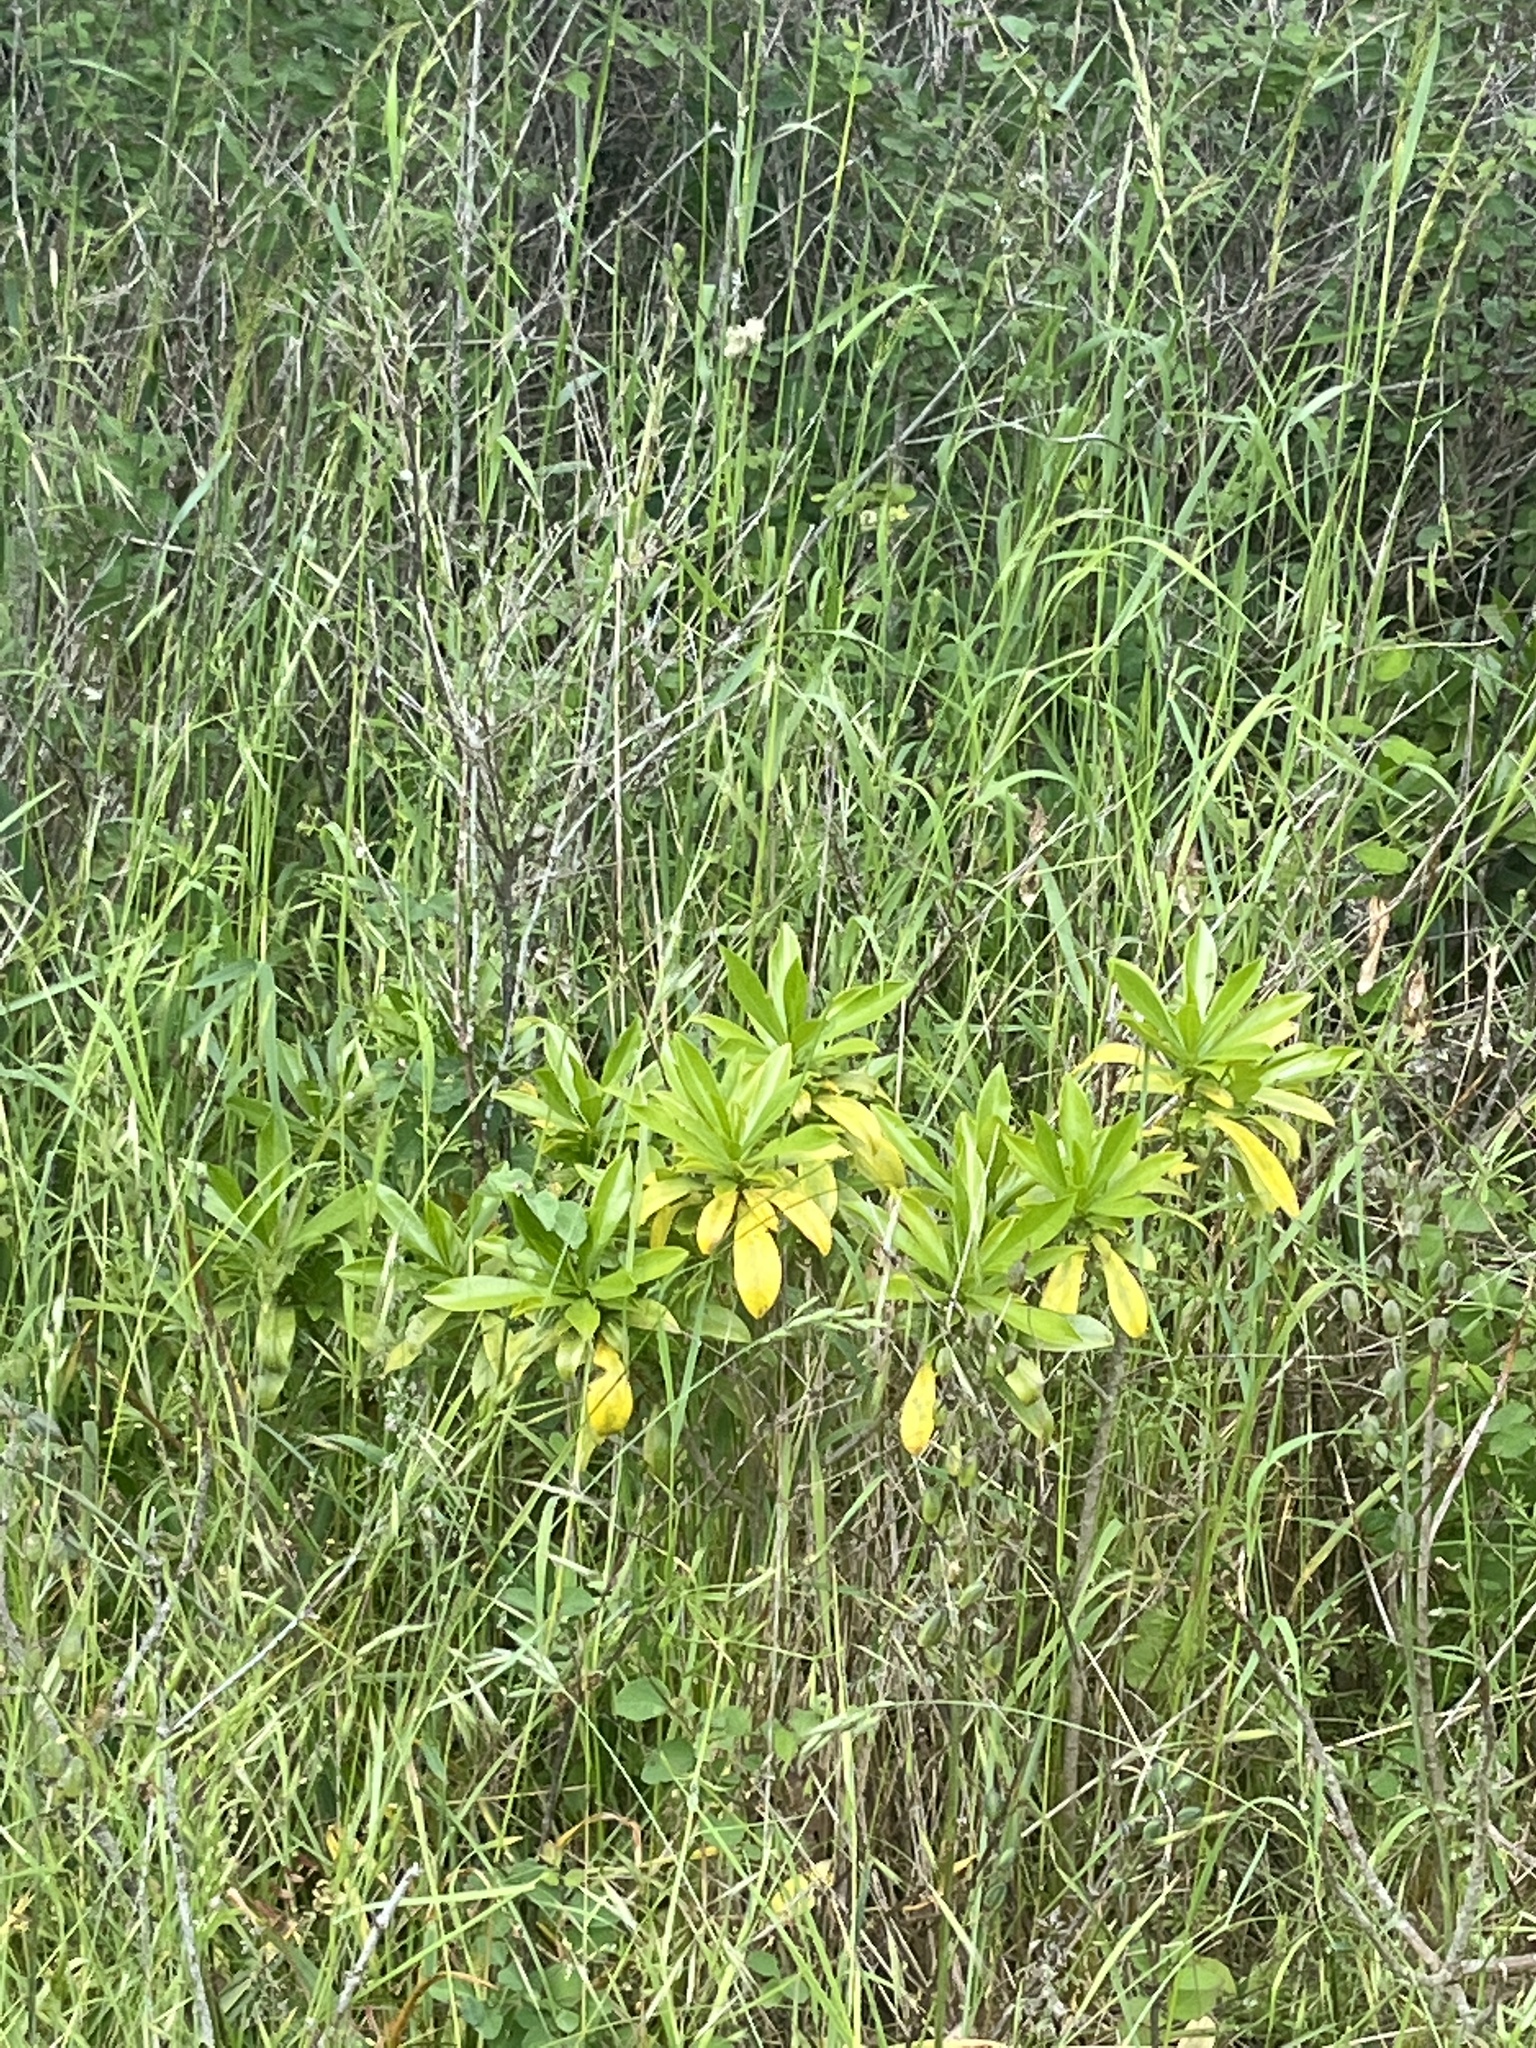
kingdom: Plantae
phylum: Tracheophyta
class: Magnoliopsida
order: Malvales
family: Thymelaeaceae
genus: Daphne
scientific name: Daphne laureola
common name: Spurge-laurel
